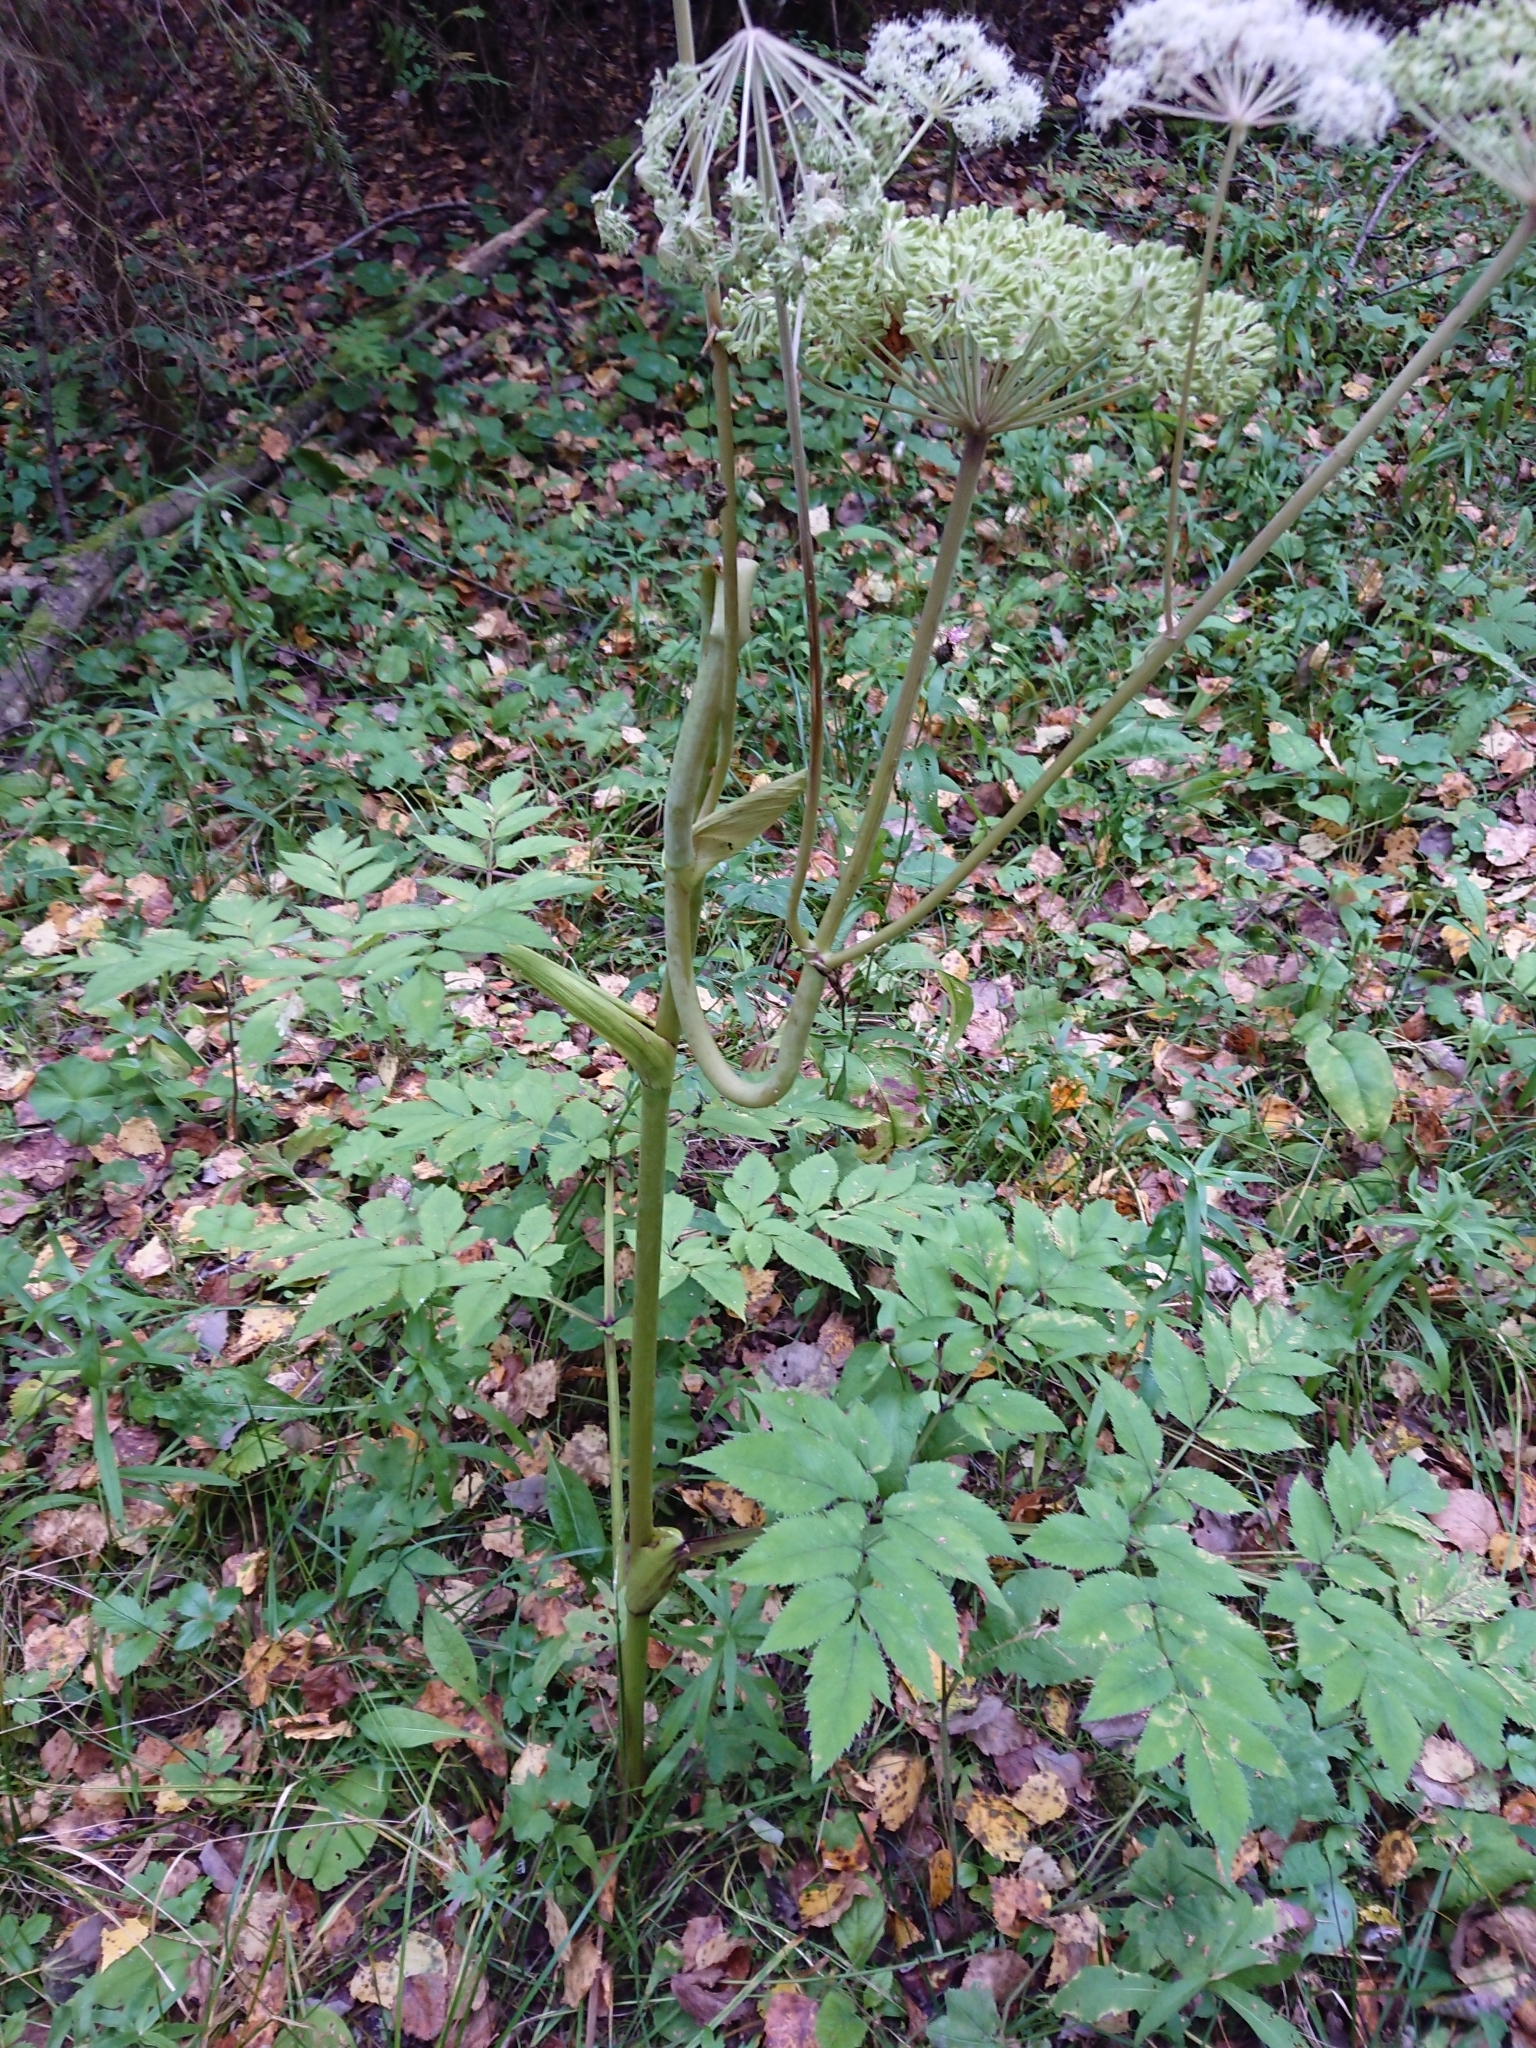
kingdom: Plantae
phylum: Tracheophyta
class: Magnoliopsida
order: Apiales
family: Apiaceae
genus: Angelica
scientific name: Angelica sylvestris
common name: Wild angelica
